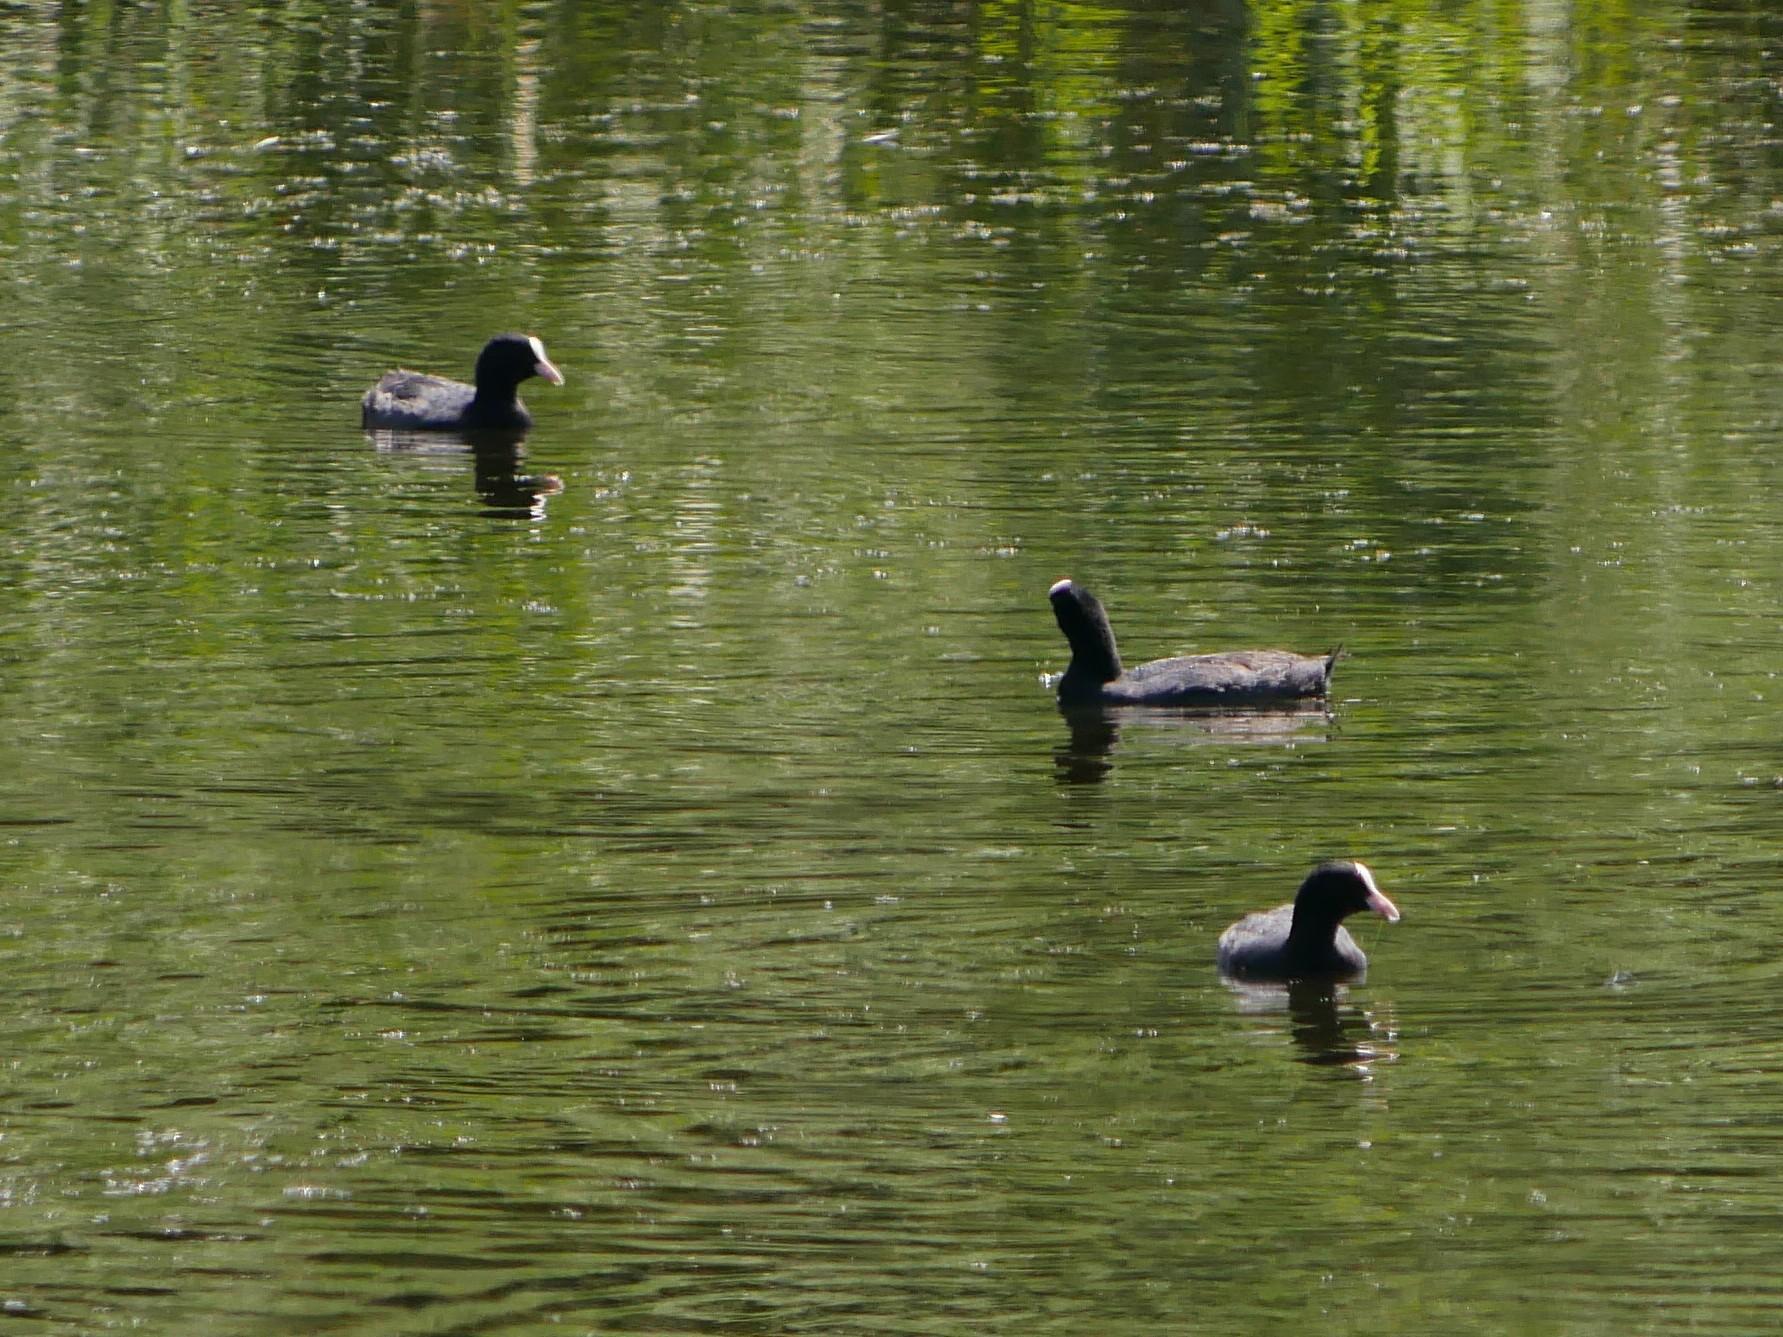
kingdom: Animalia
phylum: Chordata
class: Aves
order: Gruiformes
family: Rallidae
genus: Fulica
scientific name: Fulica atra
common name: Eurasian coot
